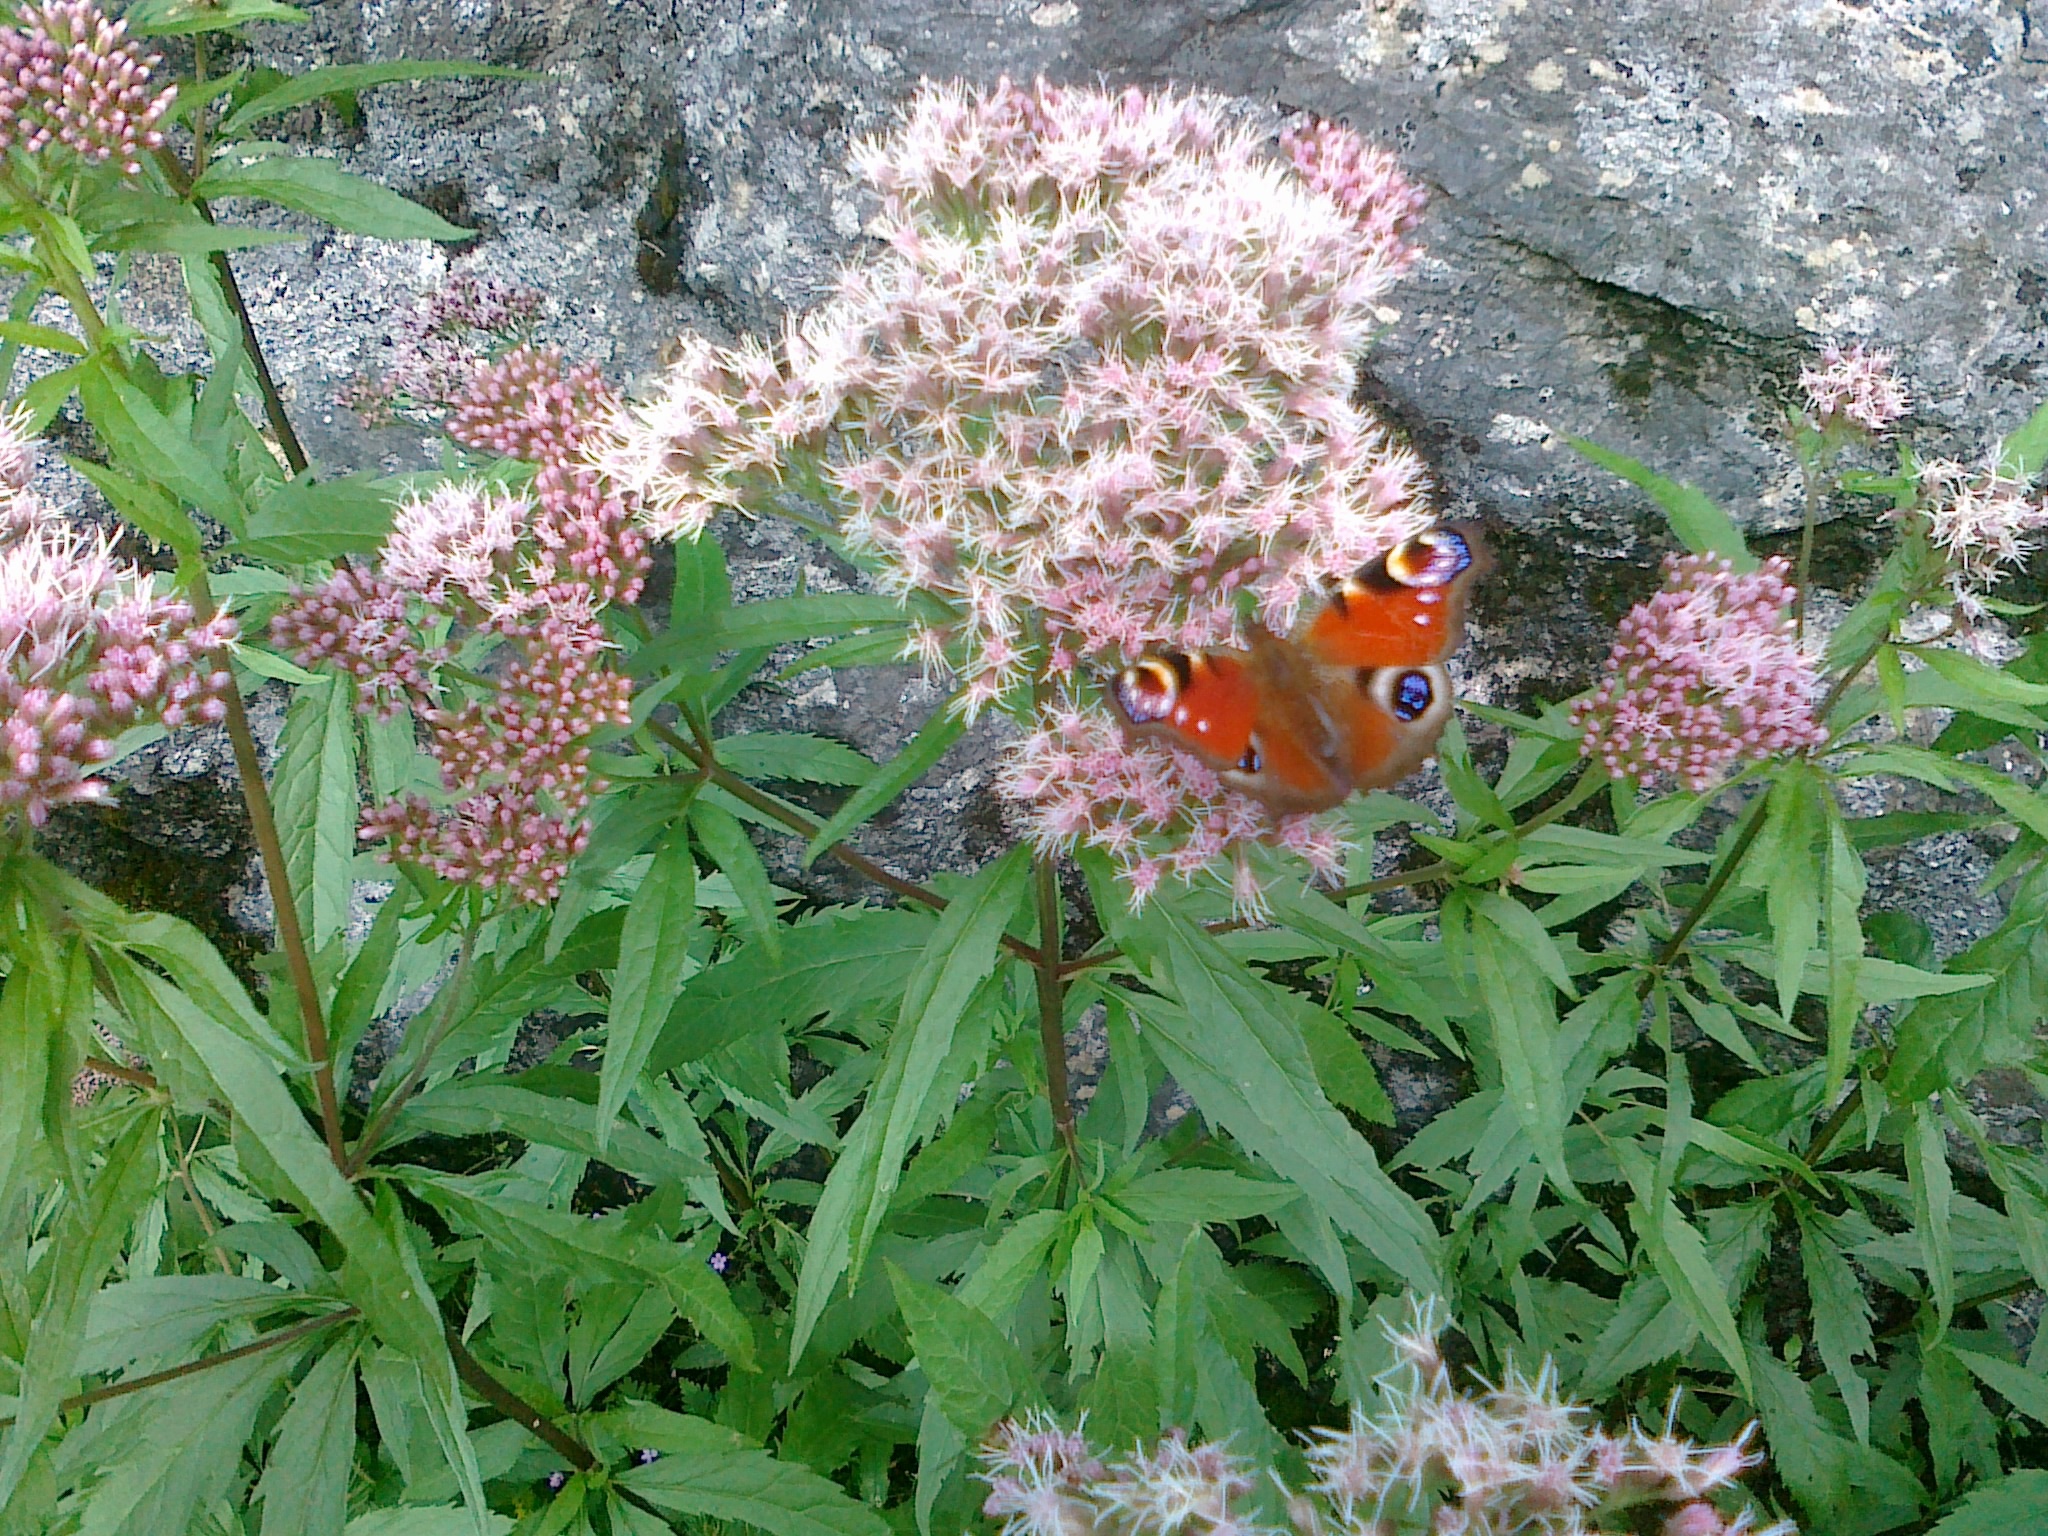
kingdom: Plantae
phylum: Tracheophyta
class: Magnoliopsida
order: Asterales
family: Asteraceae
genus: Eupatorium
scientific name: Eupatorium cannabinum
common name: Hemp-agrimony
